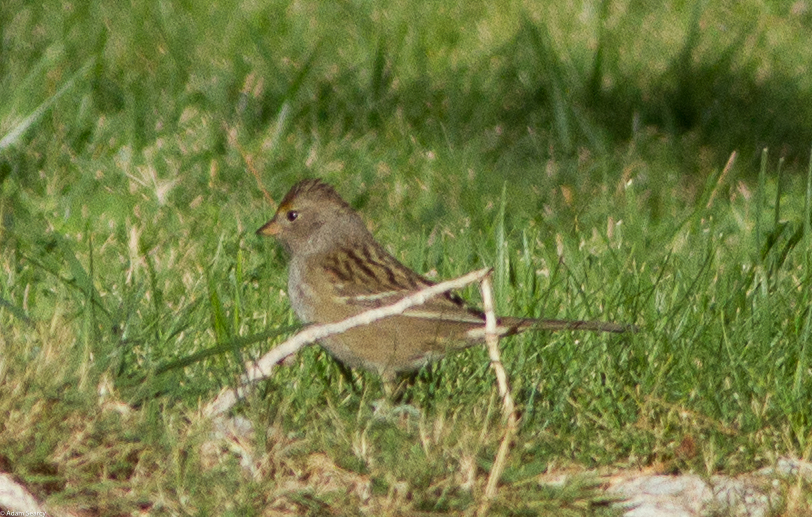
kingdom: Animalia
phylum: Chordata
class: Aves
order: Passeriformes
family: Passerellidae
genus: Zonotrichia
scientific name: Zonotrichia atricapilla
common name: Golden-crowned sparrow
